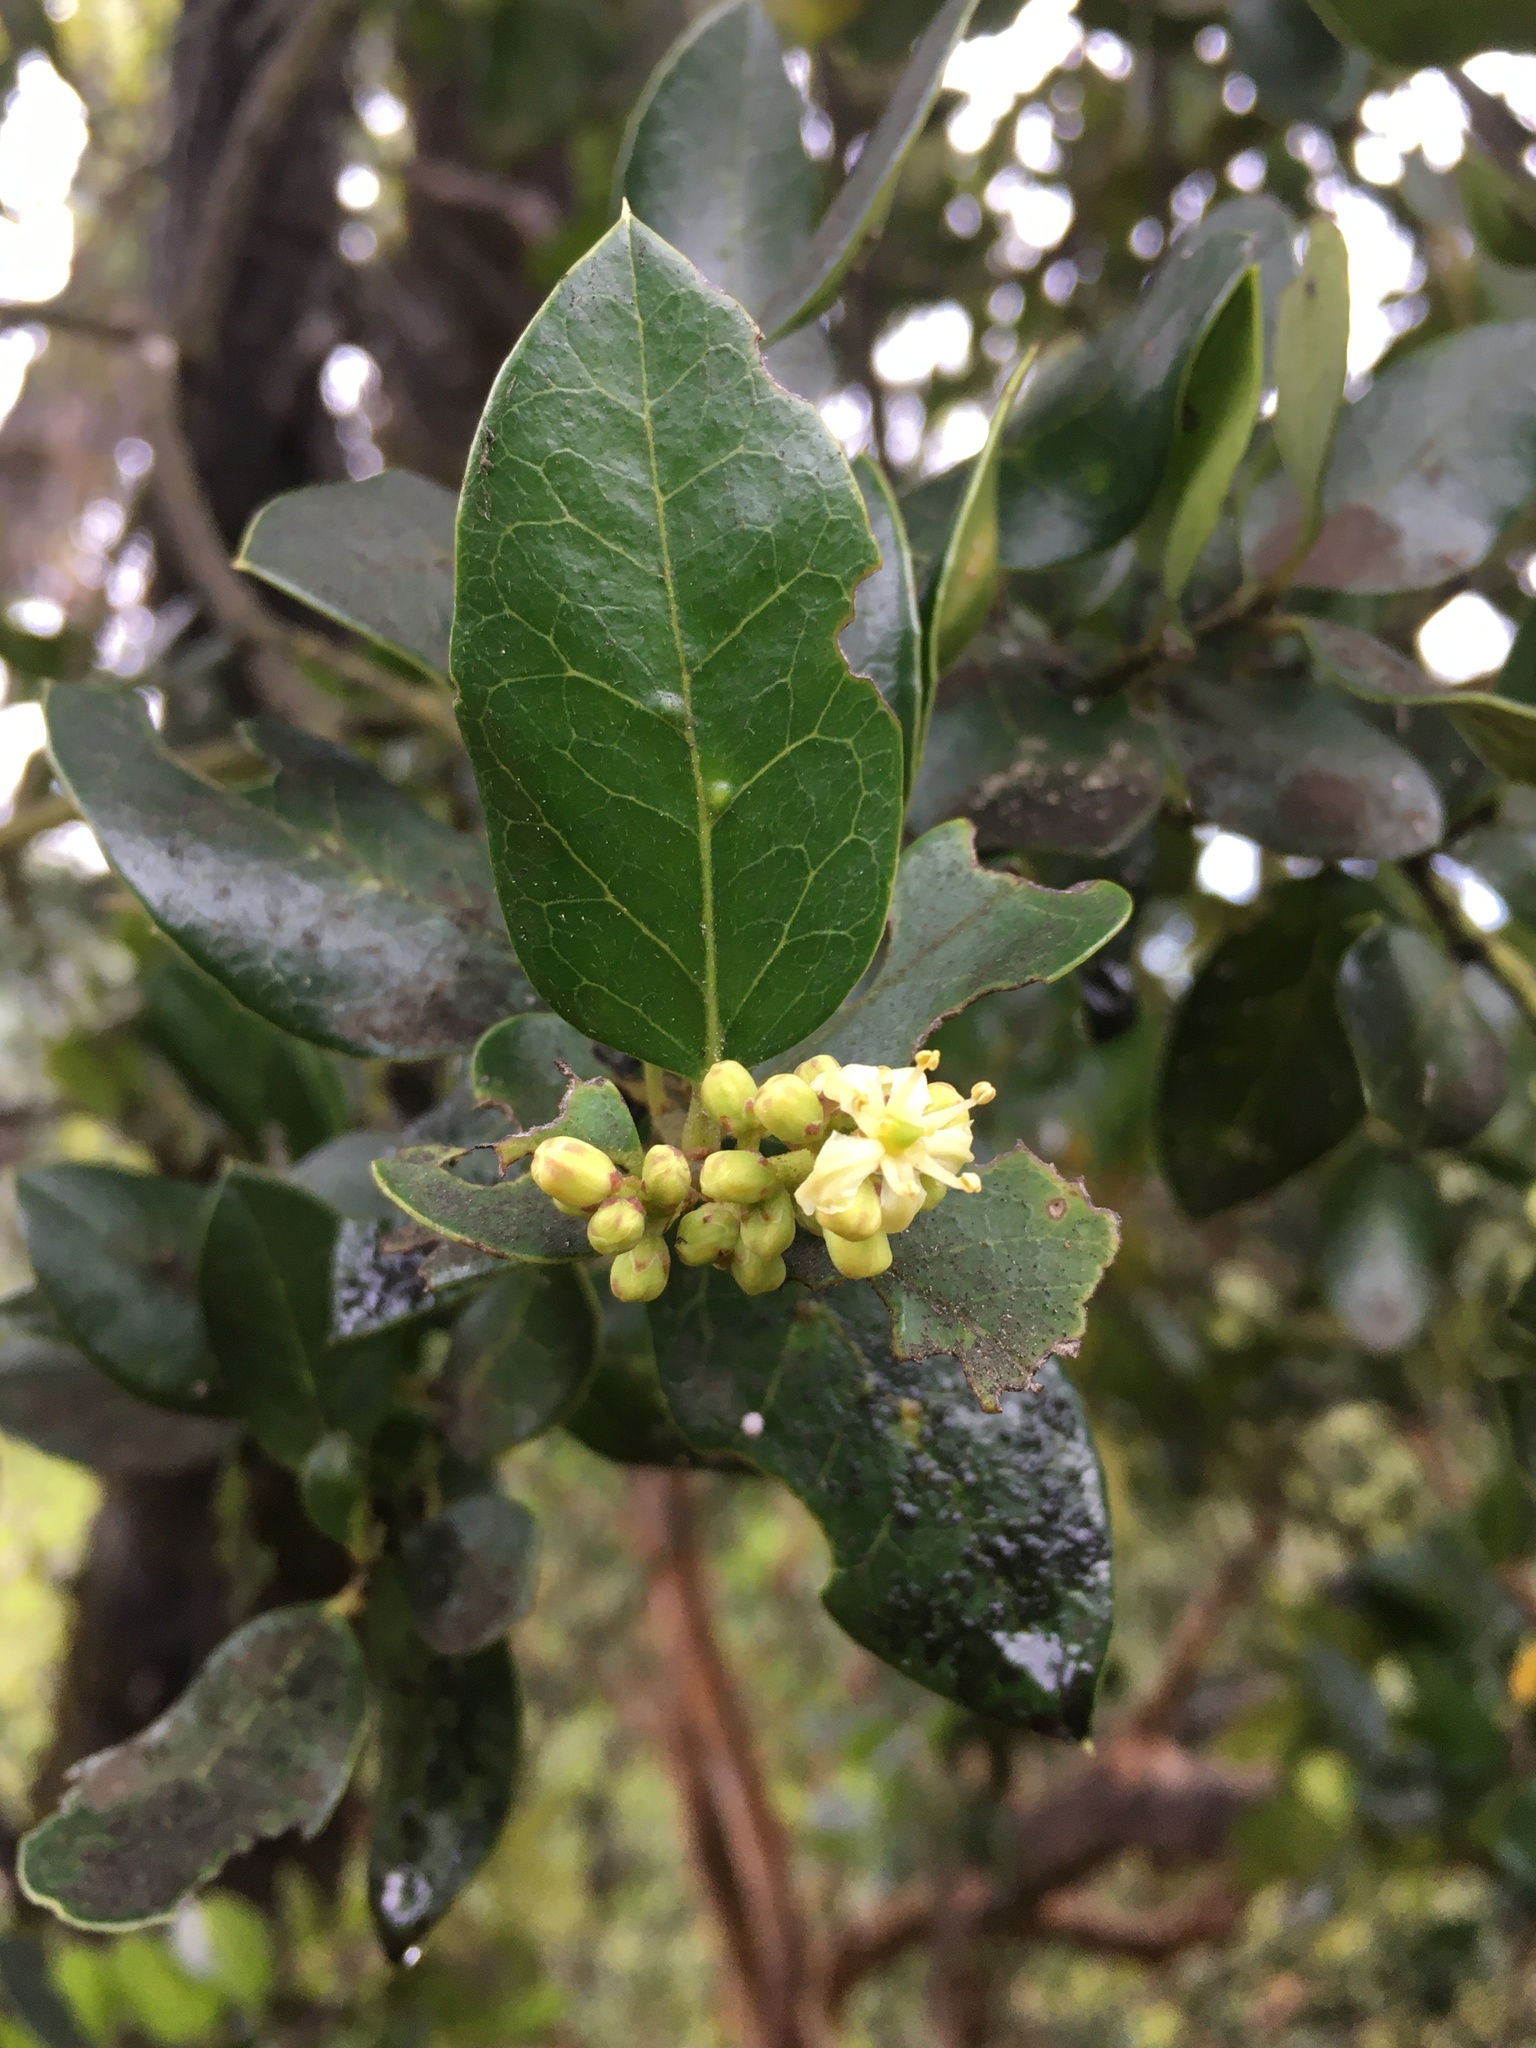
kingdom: Plantae
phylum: Tracheophyta
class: Magnoliopsida
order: Cardiopteridales
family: Cardiopteridaceae
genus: Citronella
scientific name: Citronella mucronata
